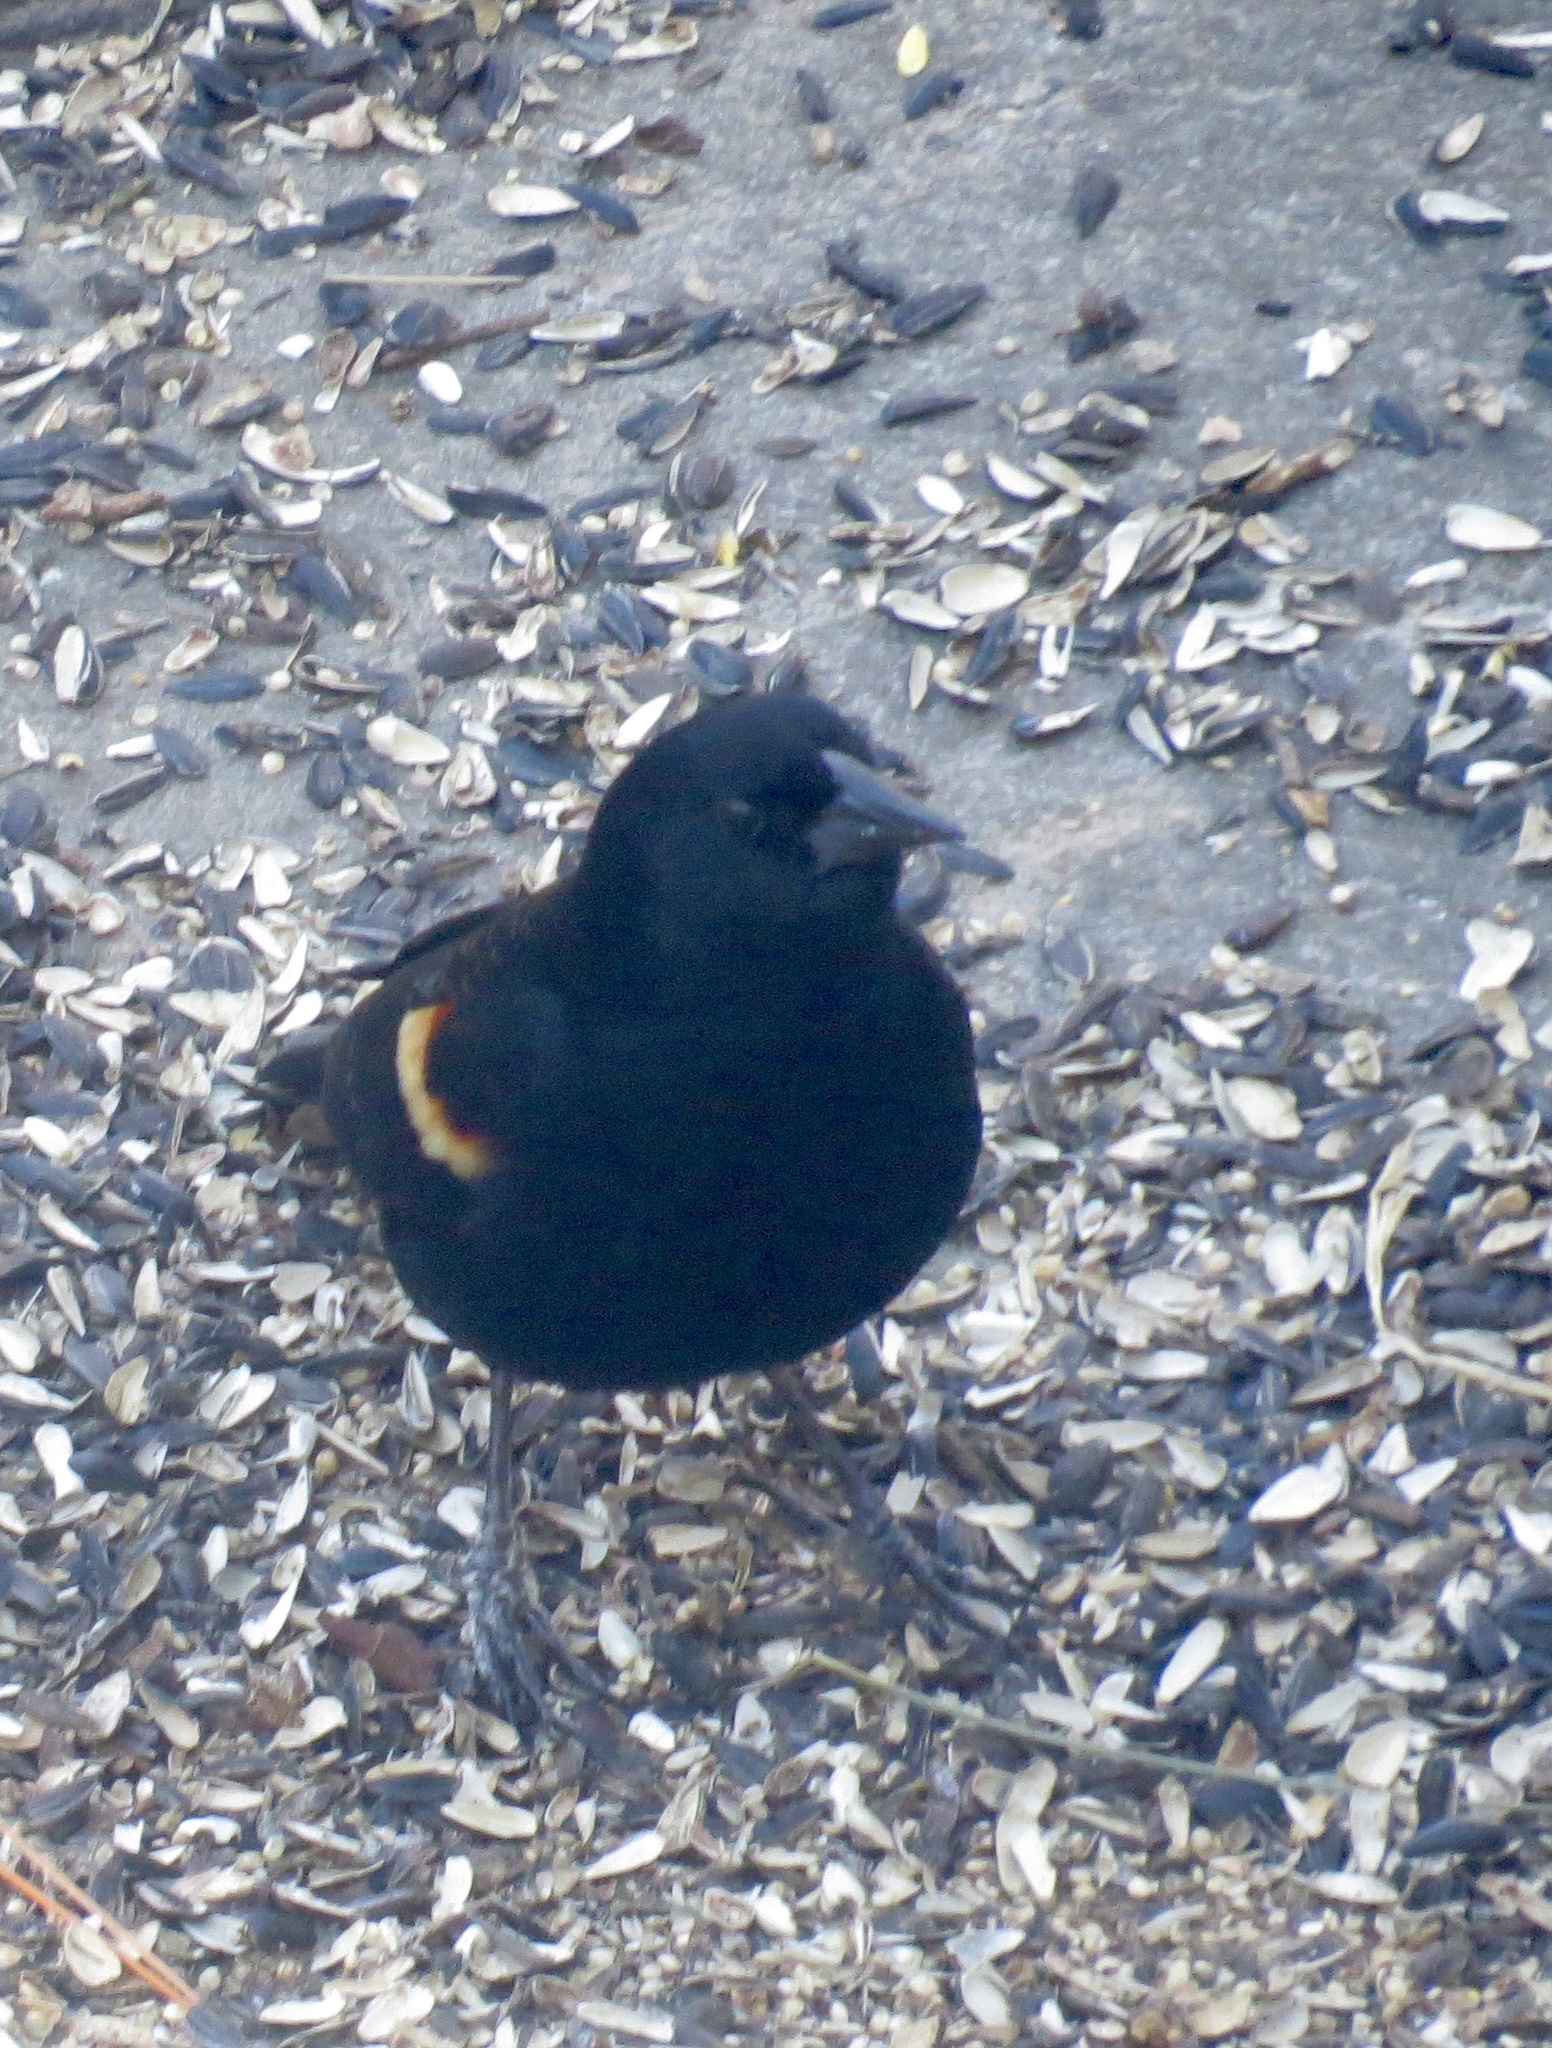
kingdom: Animalia
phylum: Chordata
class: Aves
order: Passeriformes
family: Icteridae
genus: Agelaius
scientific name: Agelaius phoeniceus
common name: Red-winged blackbird
